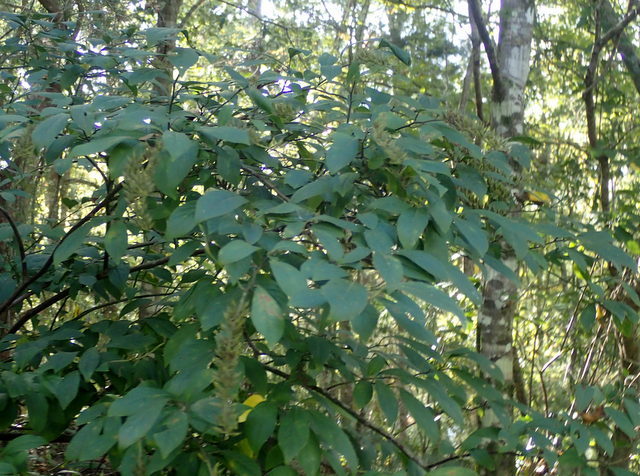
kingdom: Plantae
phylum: Tracheophyta
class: Magnoliopsida
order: Saxifragales
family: Iteaceae
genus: Itea
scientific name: Itea virginica
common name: Sweetspire
